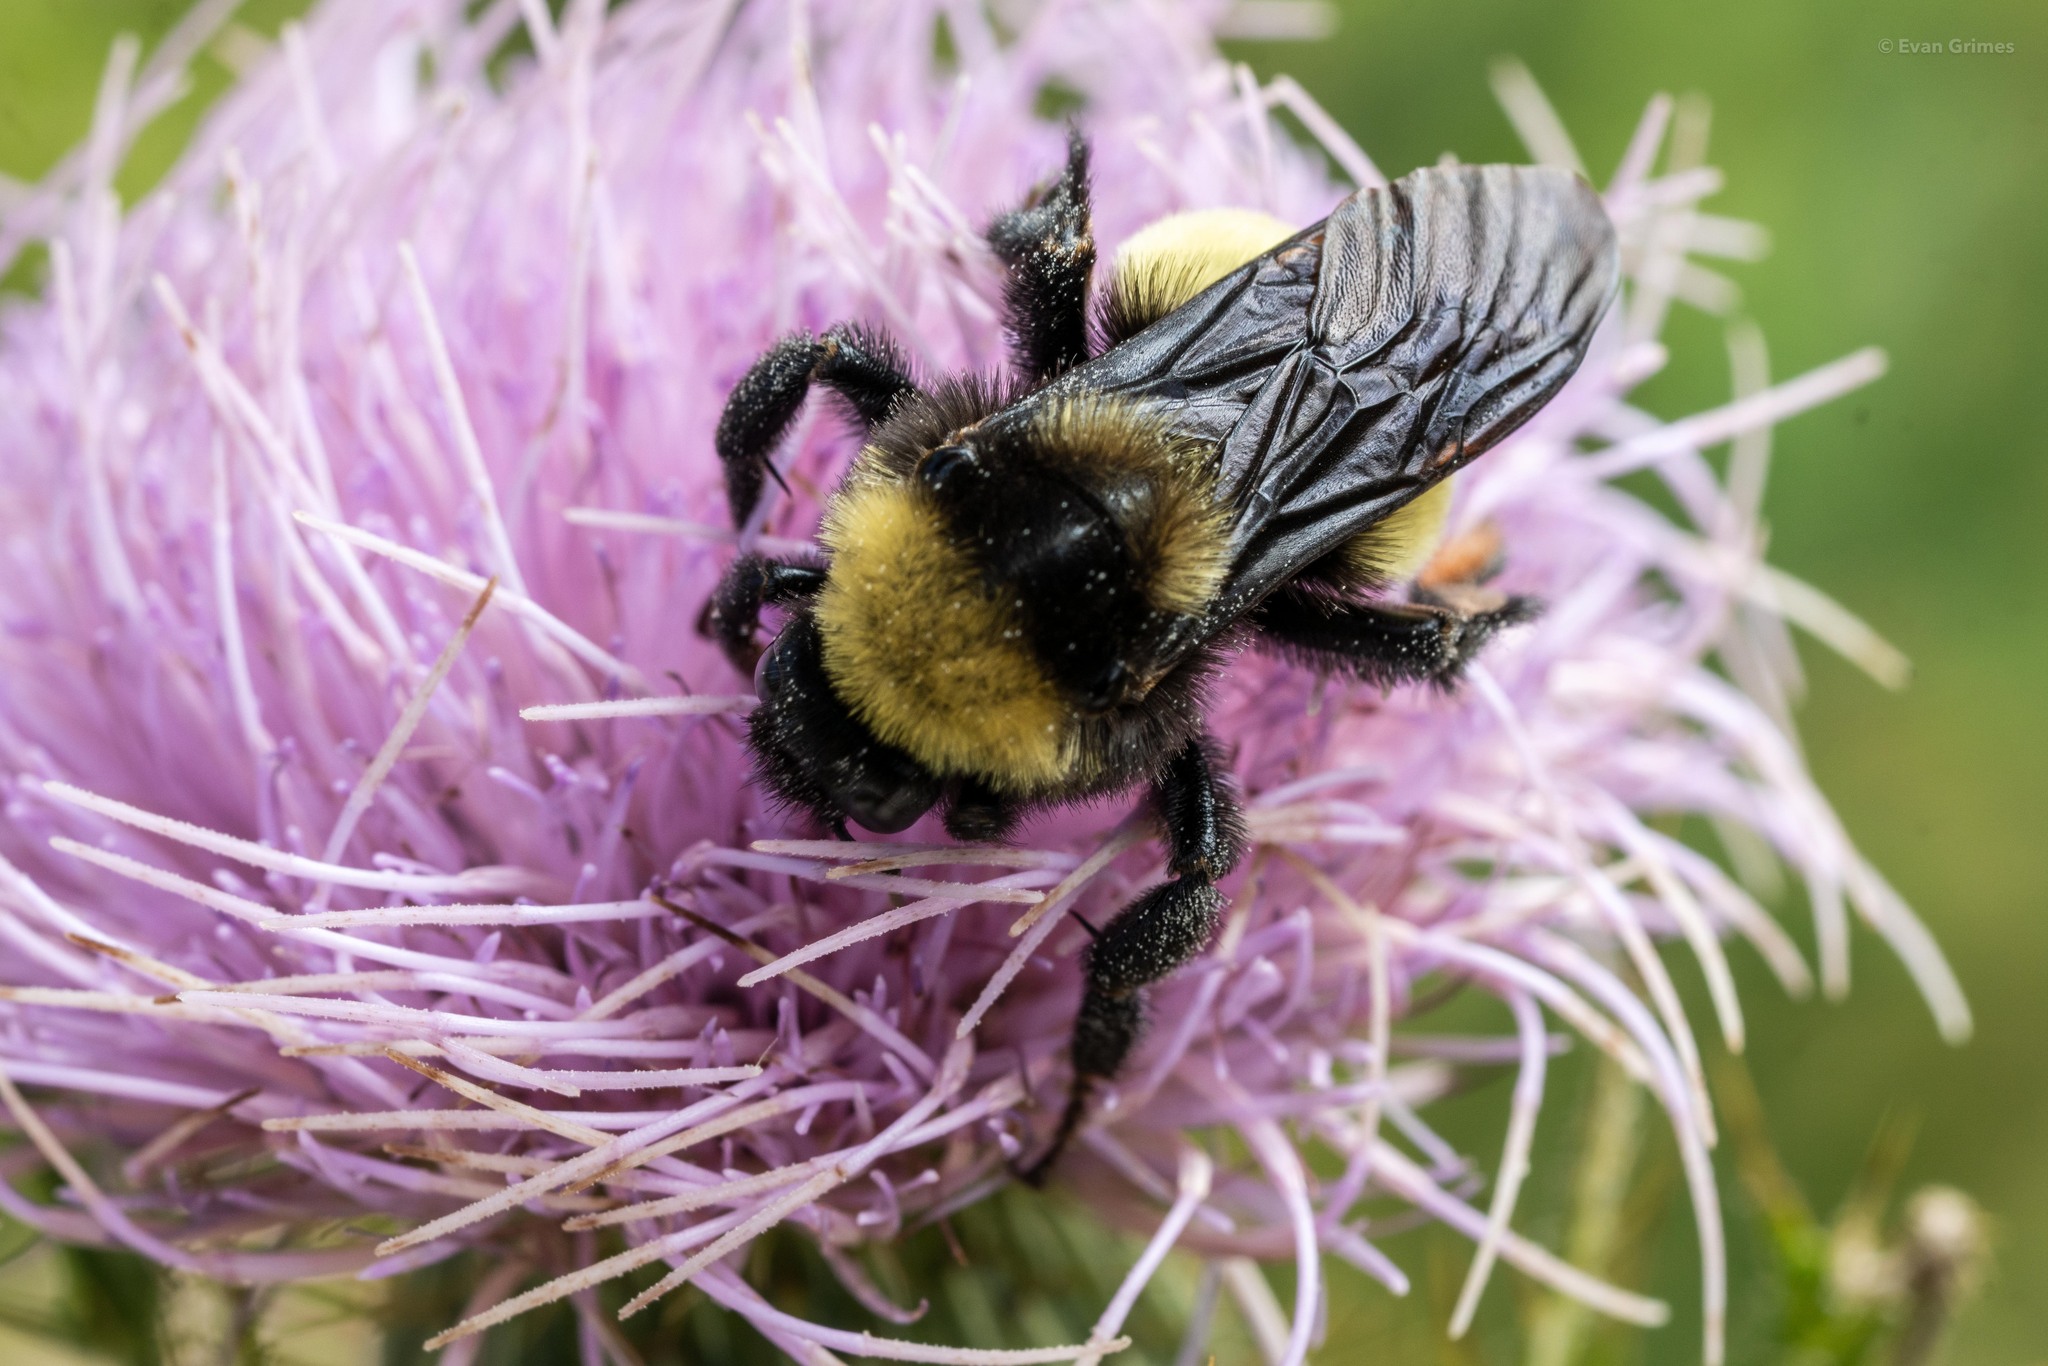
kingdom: Animalia
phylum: Arthropoda
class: Insecta
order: Hymenoptera
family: Apidae
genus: Bombus
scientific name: Bombus pensylvanicus
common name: Bumble bee
